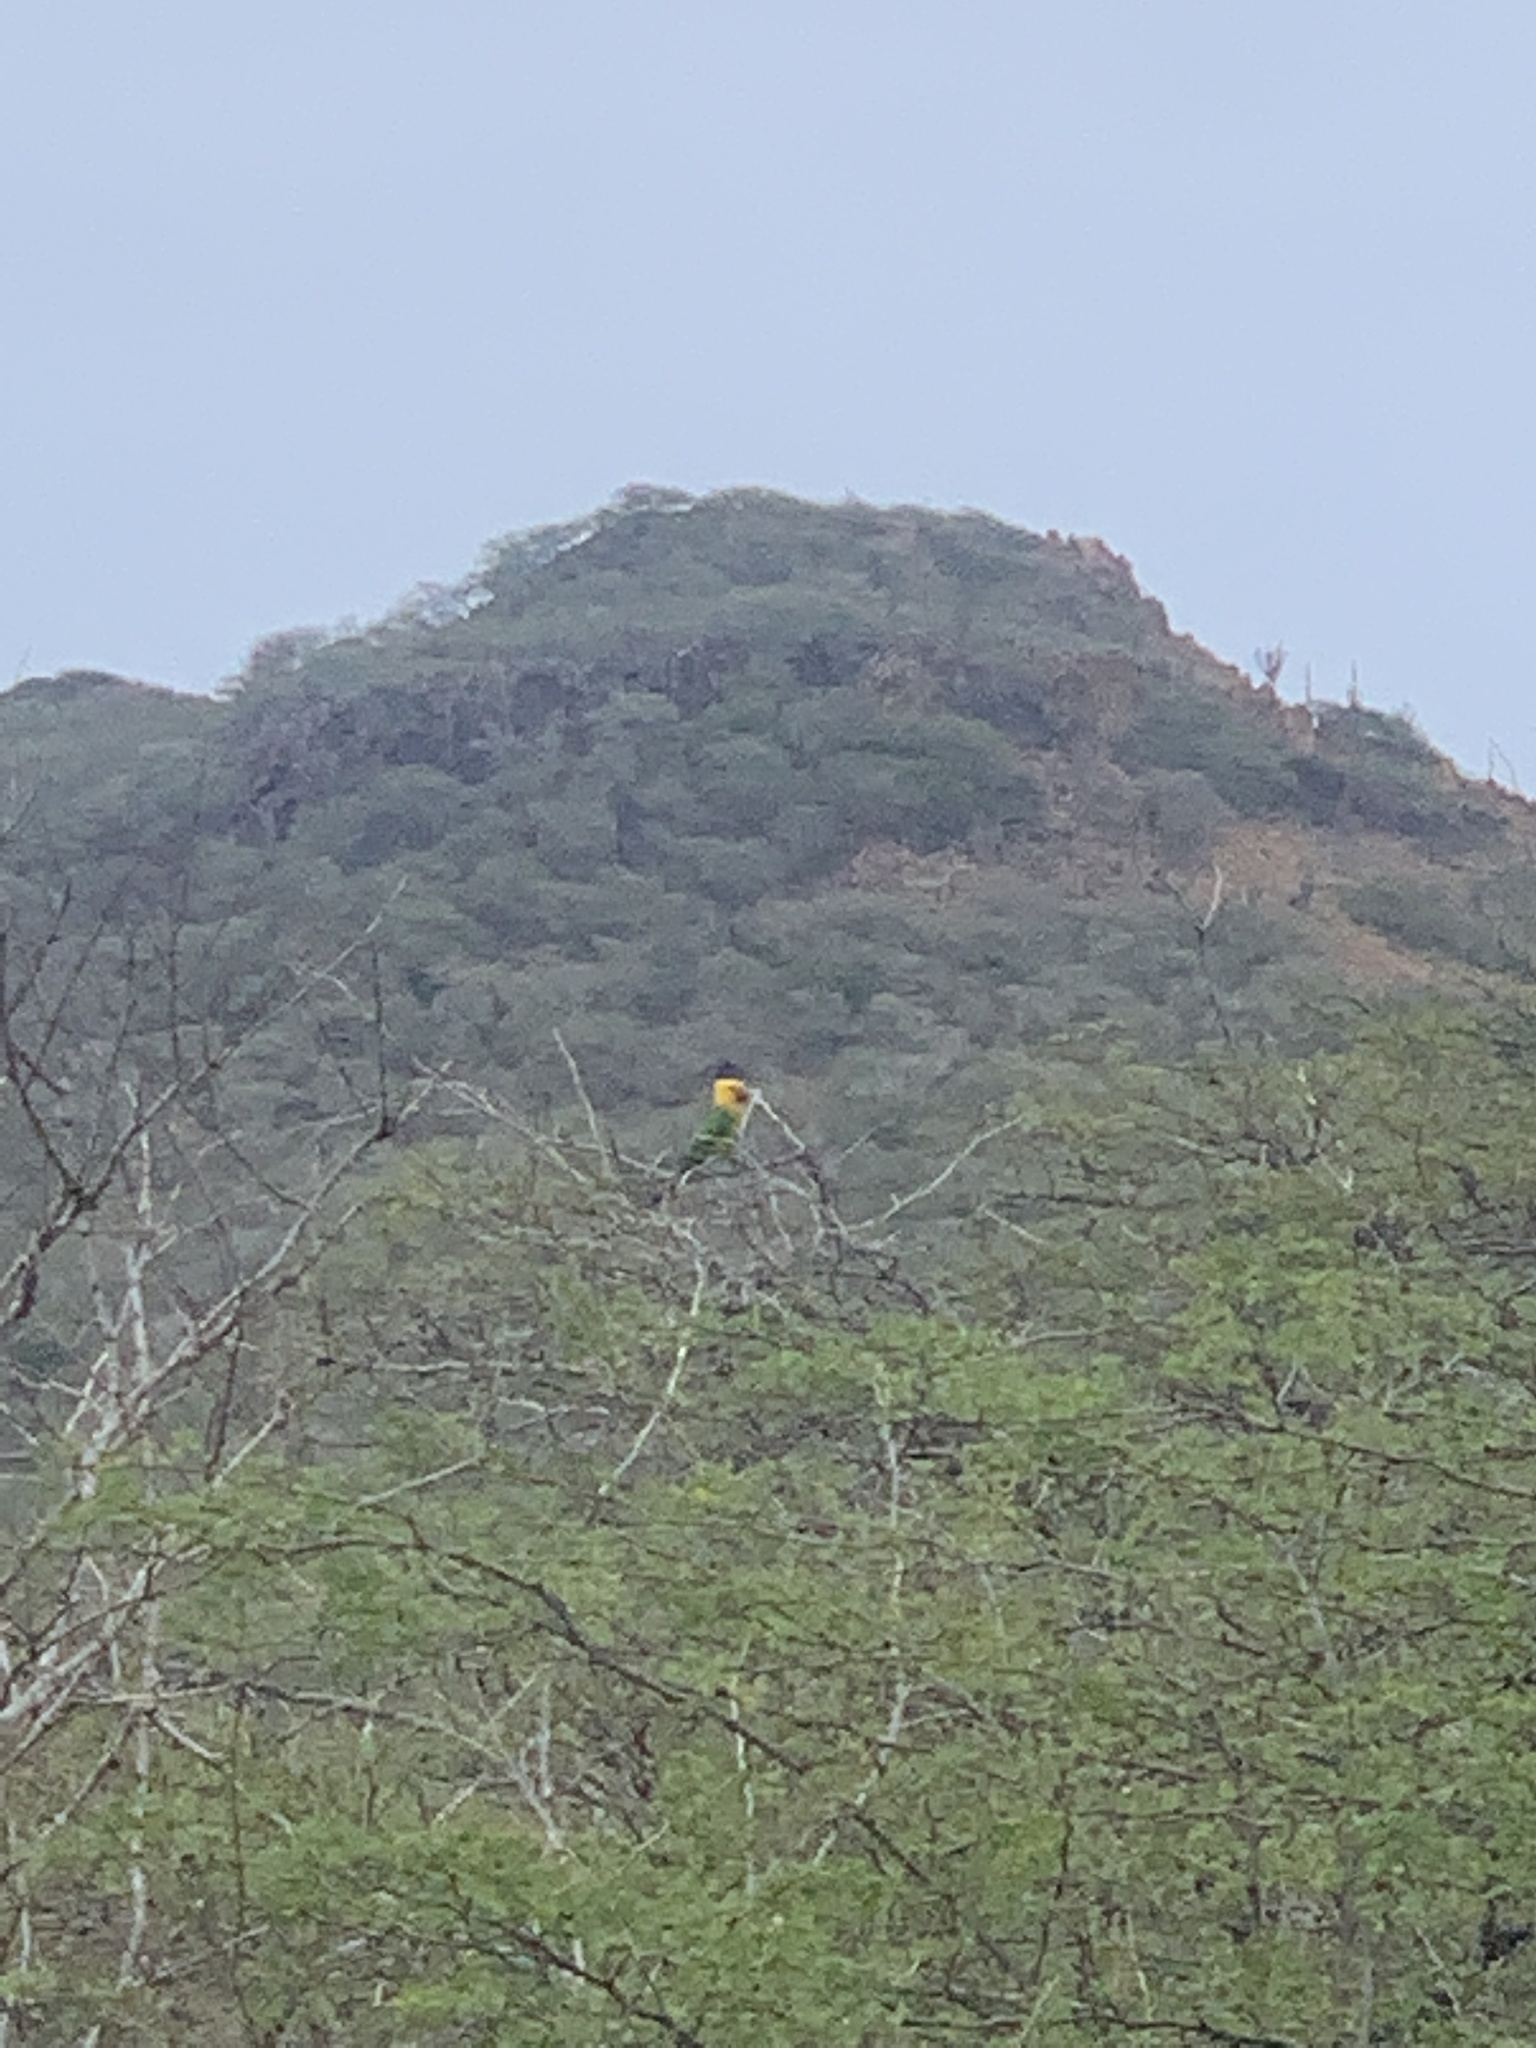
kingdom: Animalia
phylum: Chordata
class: Aves
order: Psittaciformes
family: Psittacidae
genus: Aratinga
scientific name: Aratinga pertinax
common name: Brown-throated parakeet
